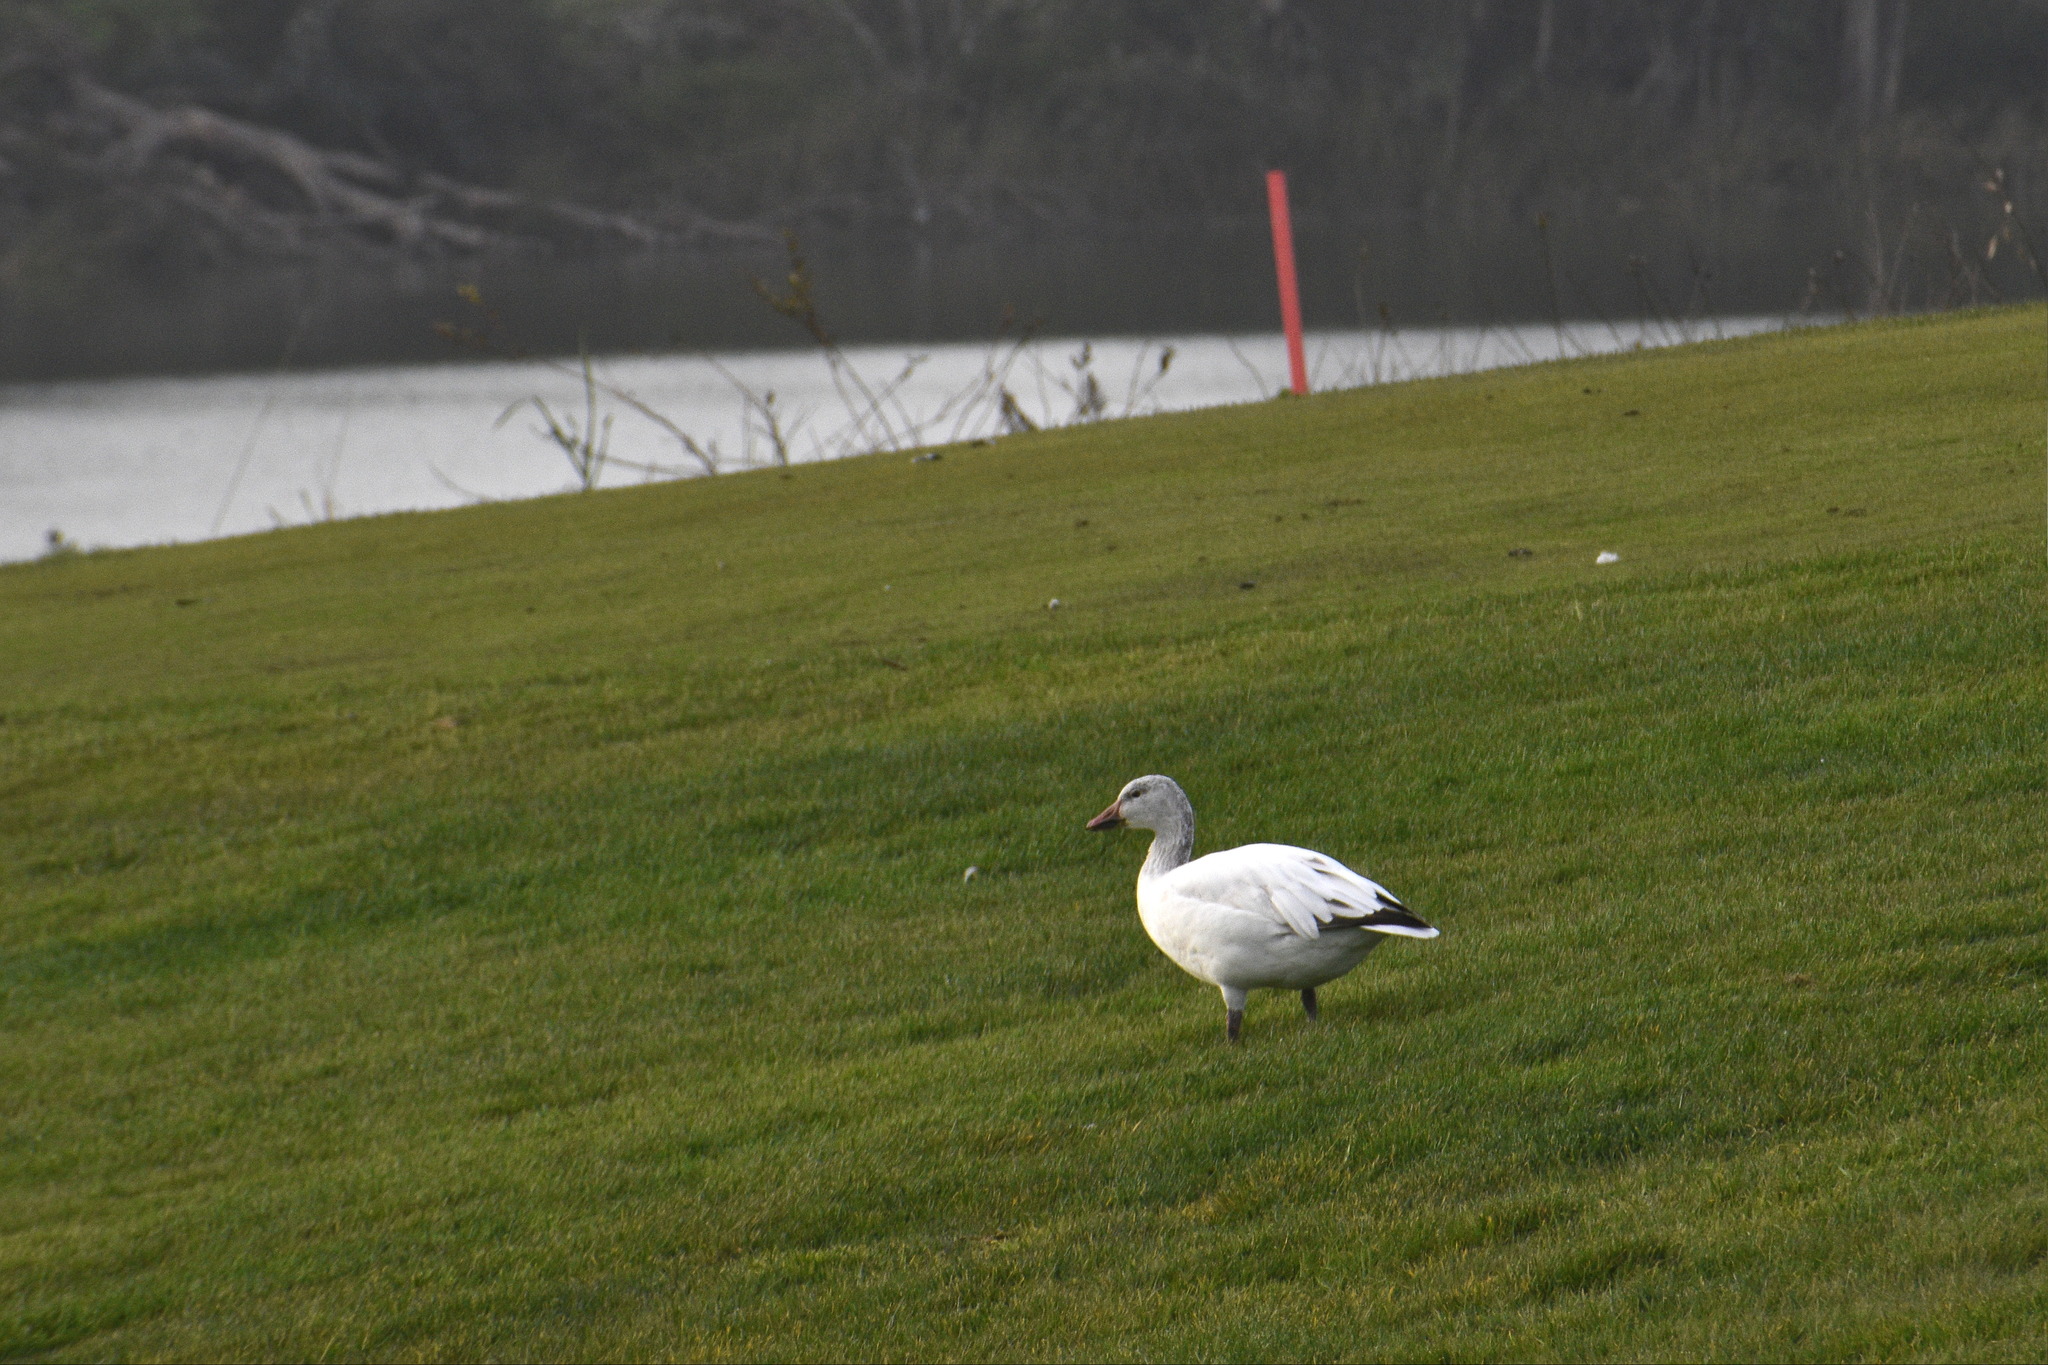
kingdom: Animalia
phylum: Chordata
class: Aves
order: Anseriformes
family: Anatidae
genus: Anser
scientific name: Anser caerulescens
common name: Snow goose
